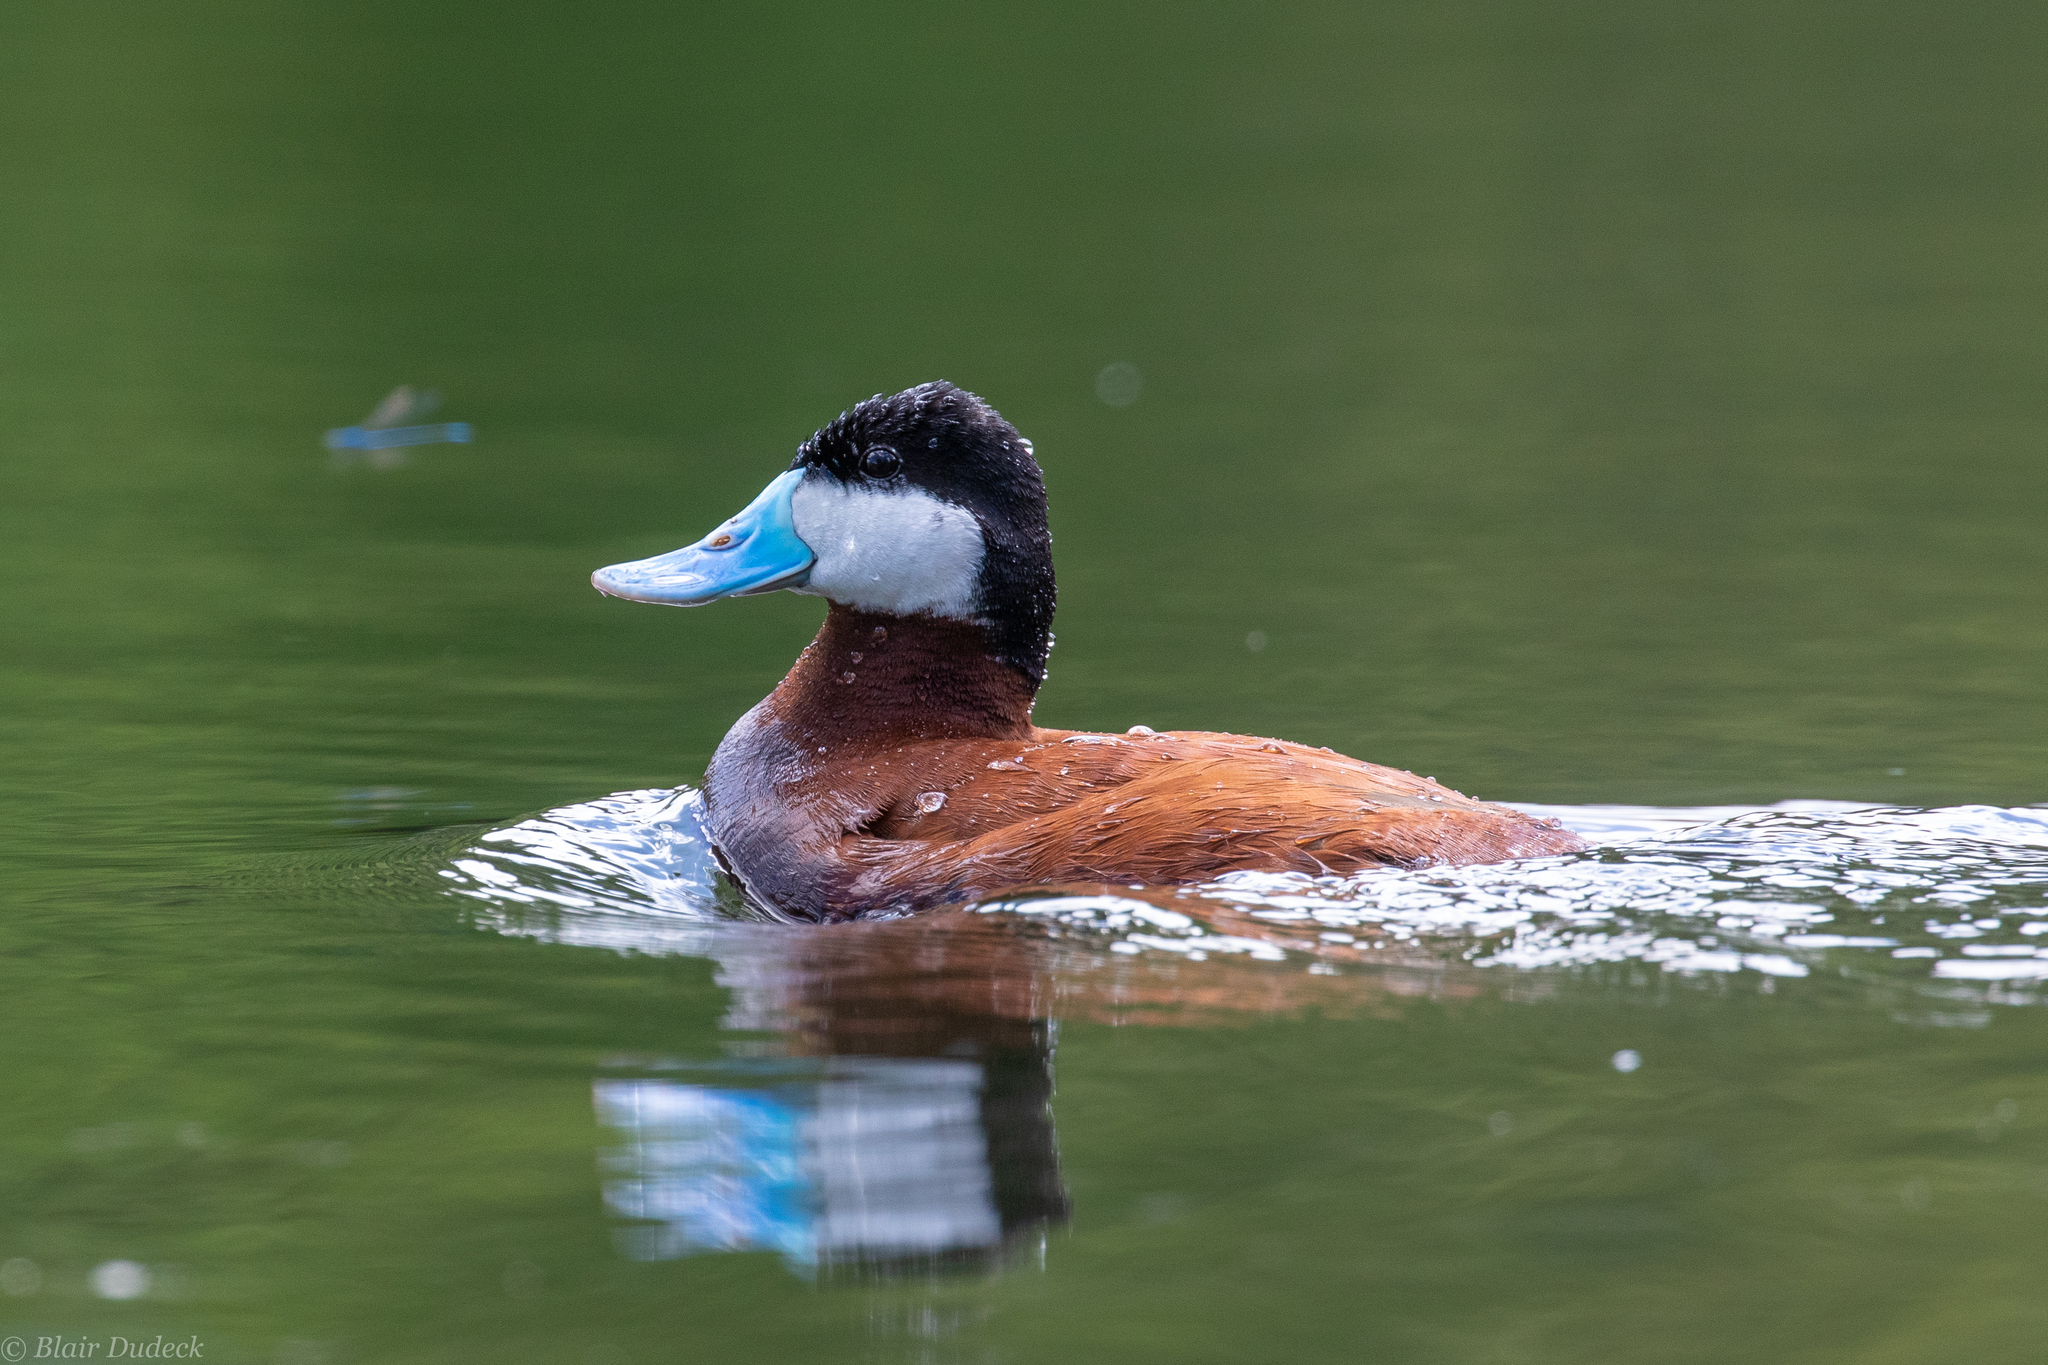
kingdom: Animalia
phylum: Chordata
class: Aves
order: Anseriformes
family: Anatidae
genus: Oxyura
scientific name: Oxyura jamaicensis
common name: Ruddy duck
